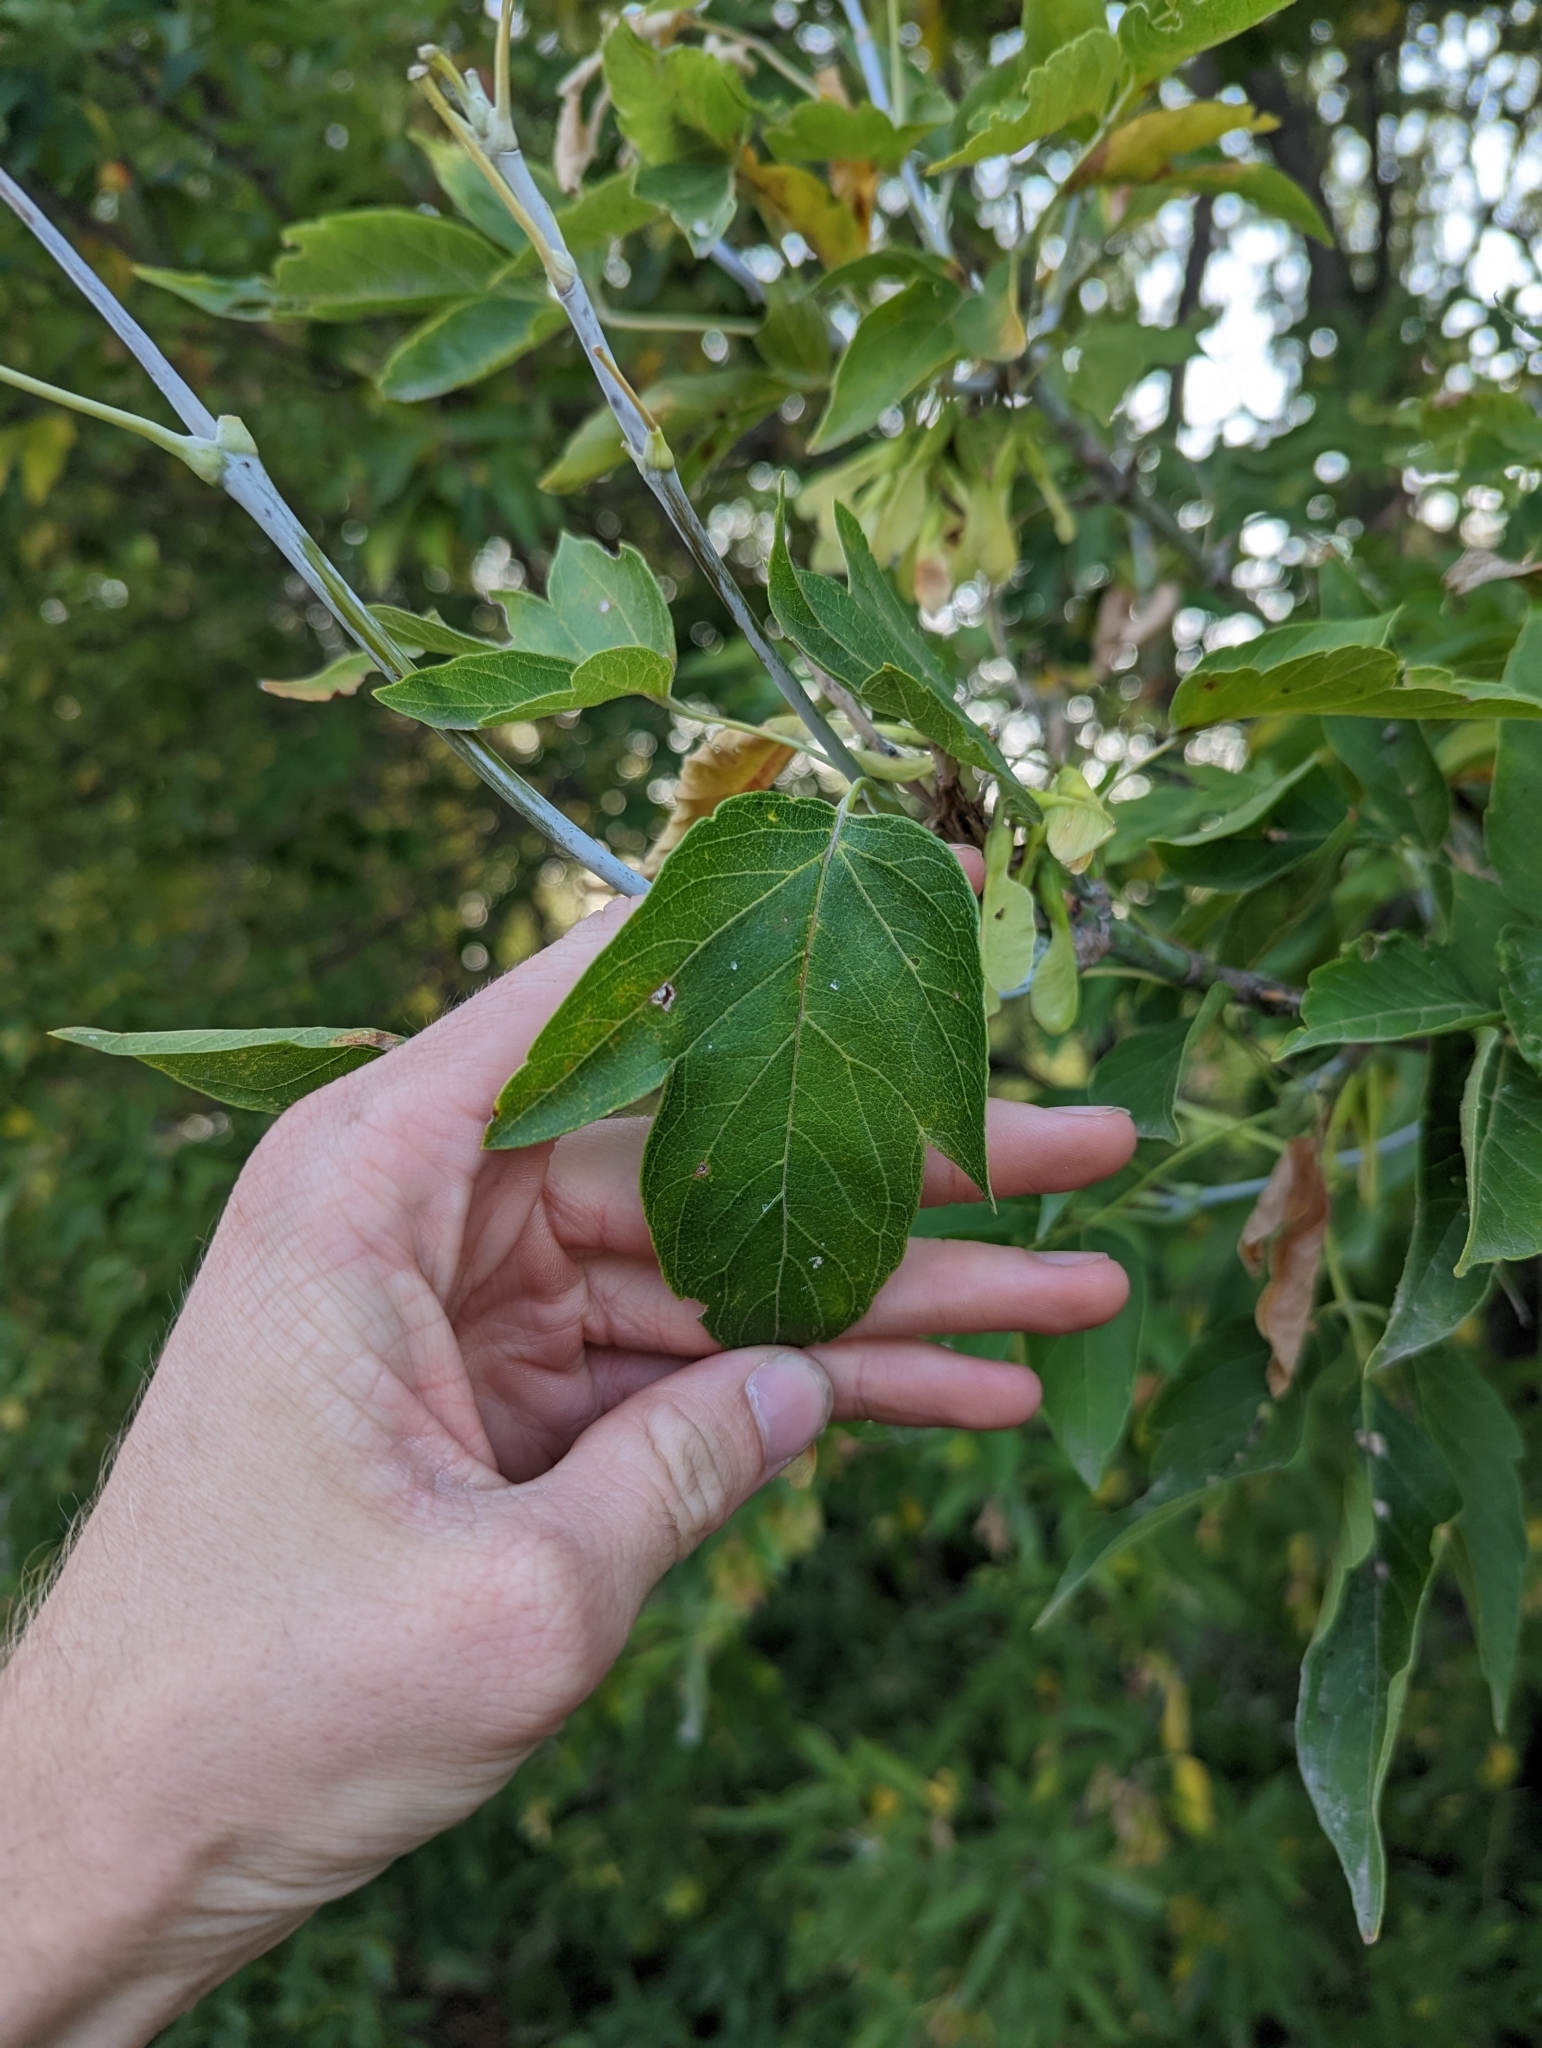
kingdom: Plantae
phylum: Tracheophyta
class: Magnoliopsida
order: Sapindales
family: Sapindaceae
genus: Acer
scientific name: Acer negundo
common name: Ashleaf maple
